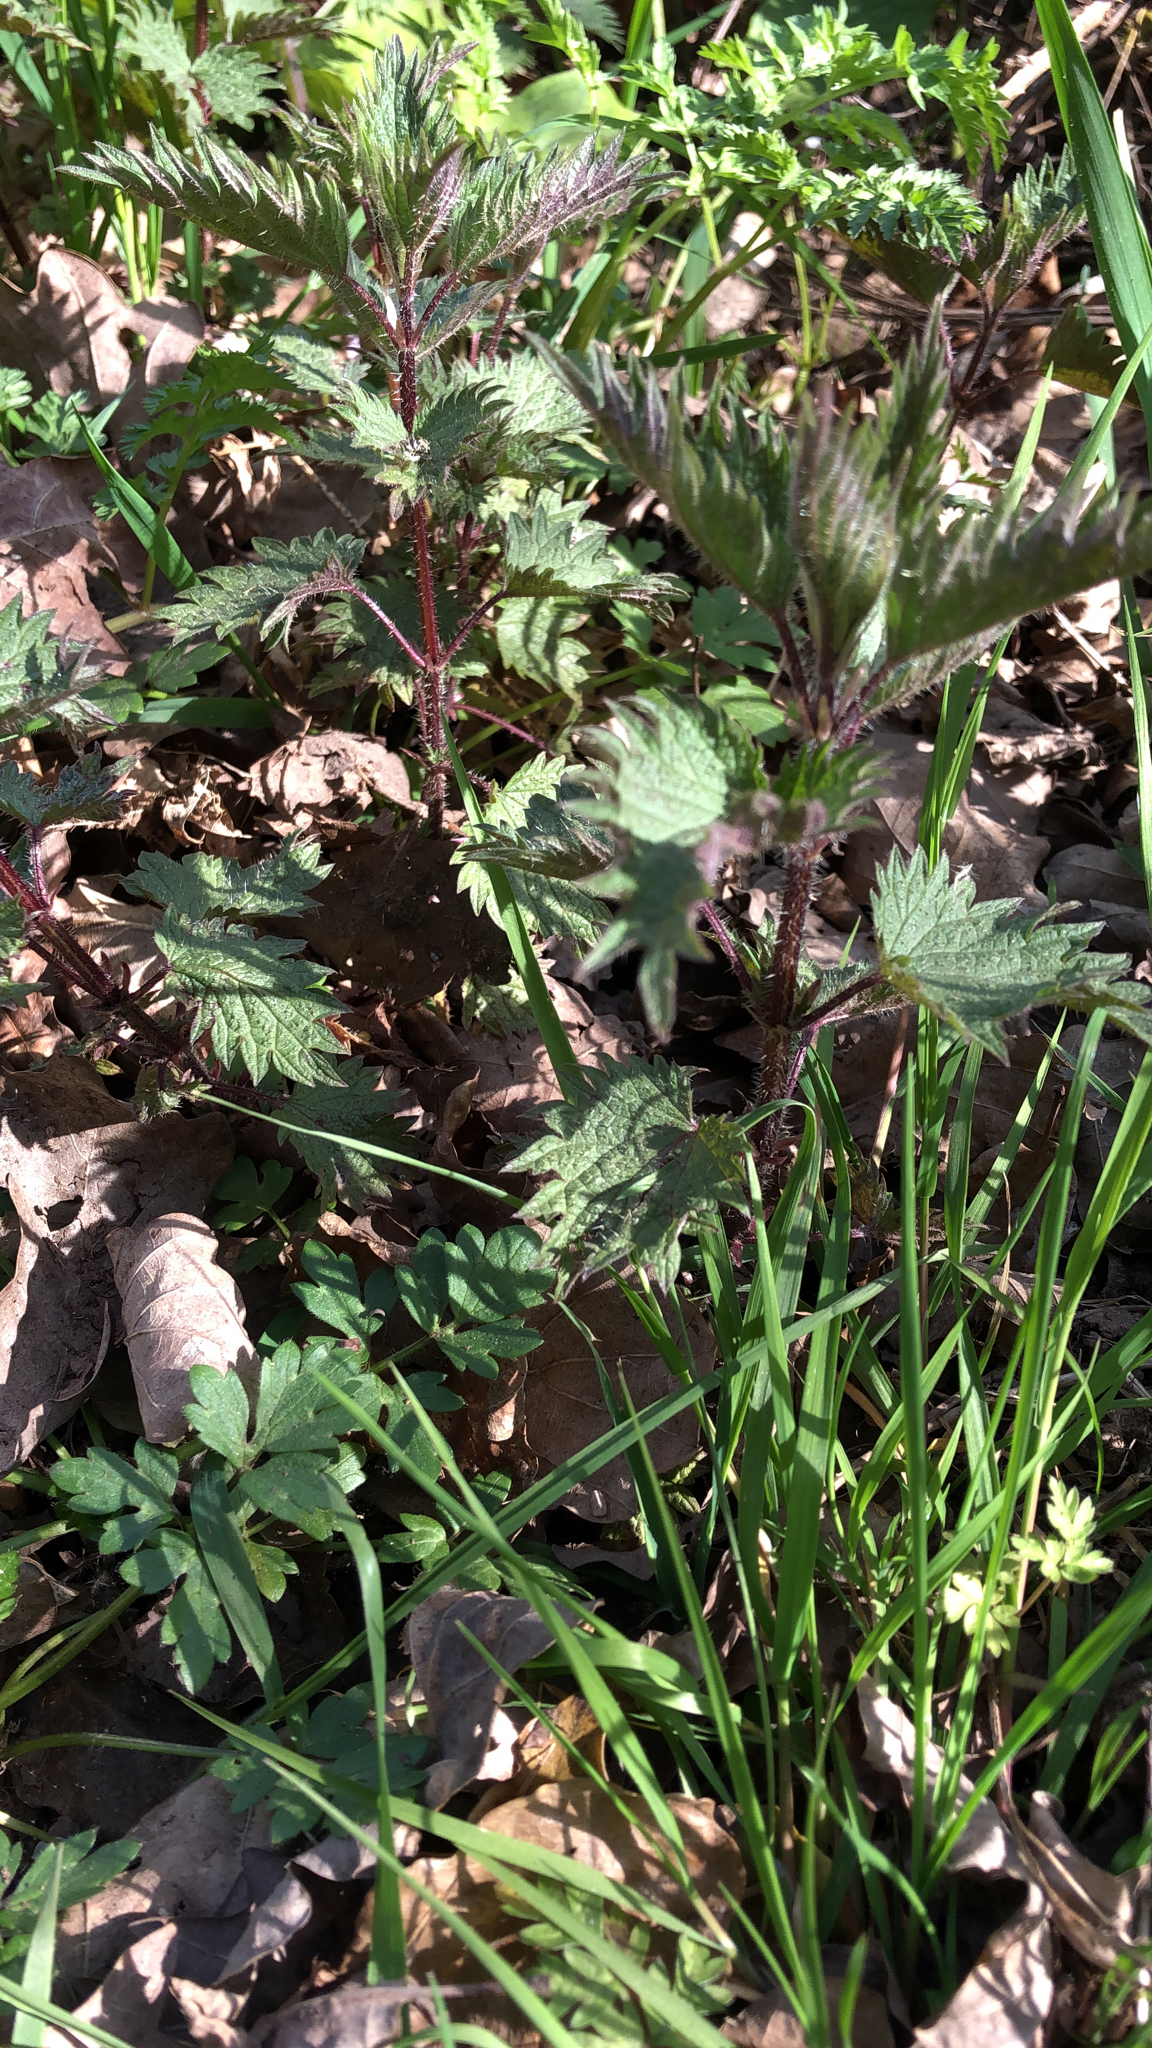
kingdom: Plantae
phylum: Tracheophyta
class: Magnoliopsida
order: Rosales
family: Urticaceae
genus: Urtica
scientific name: Urtica dioica
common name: Common nettle
